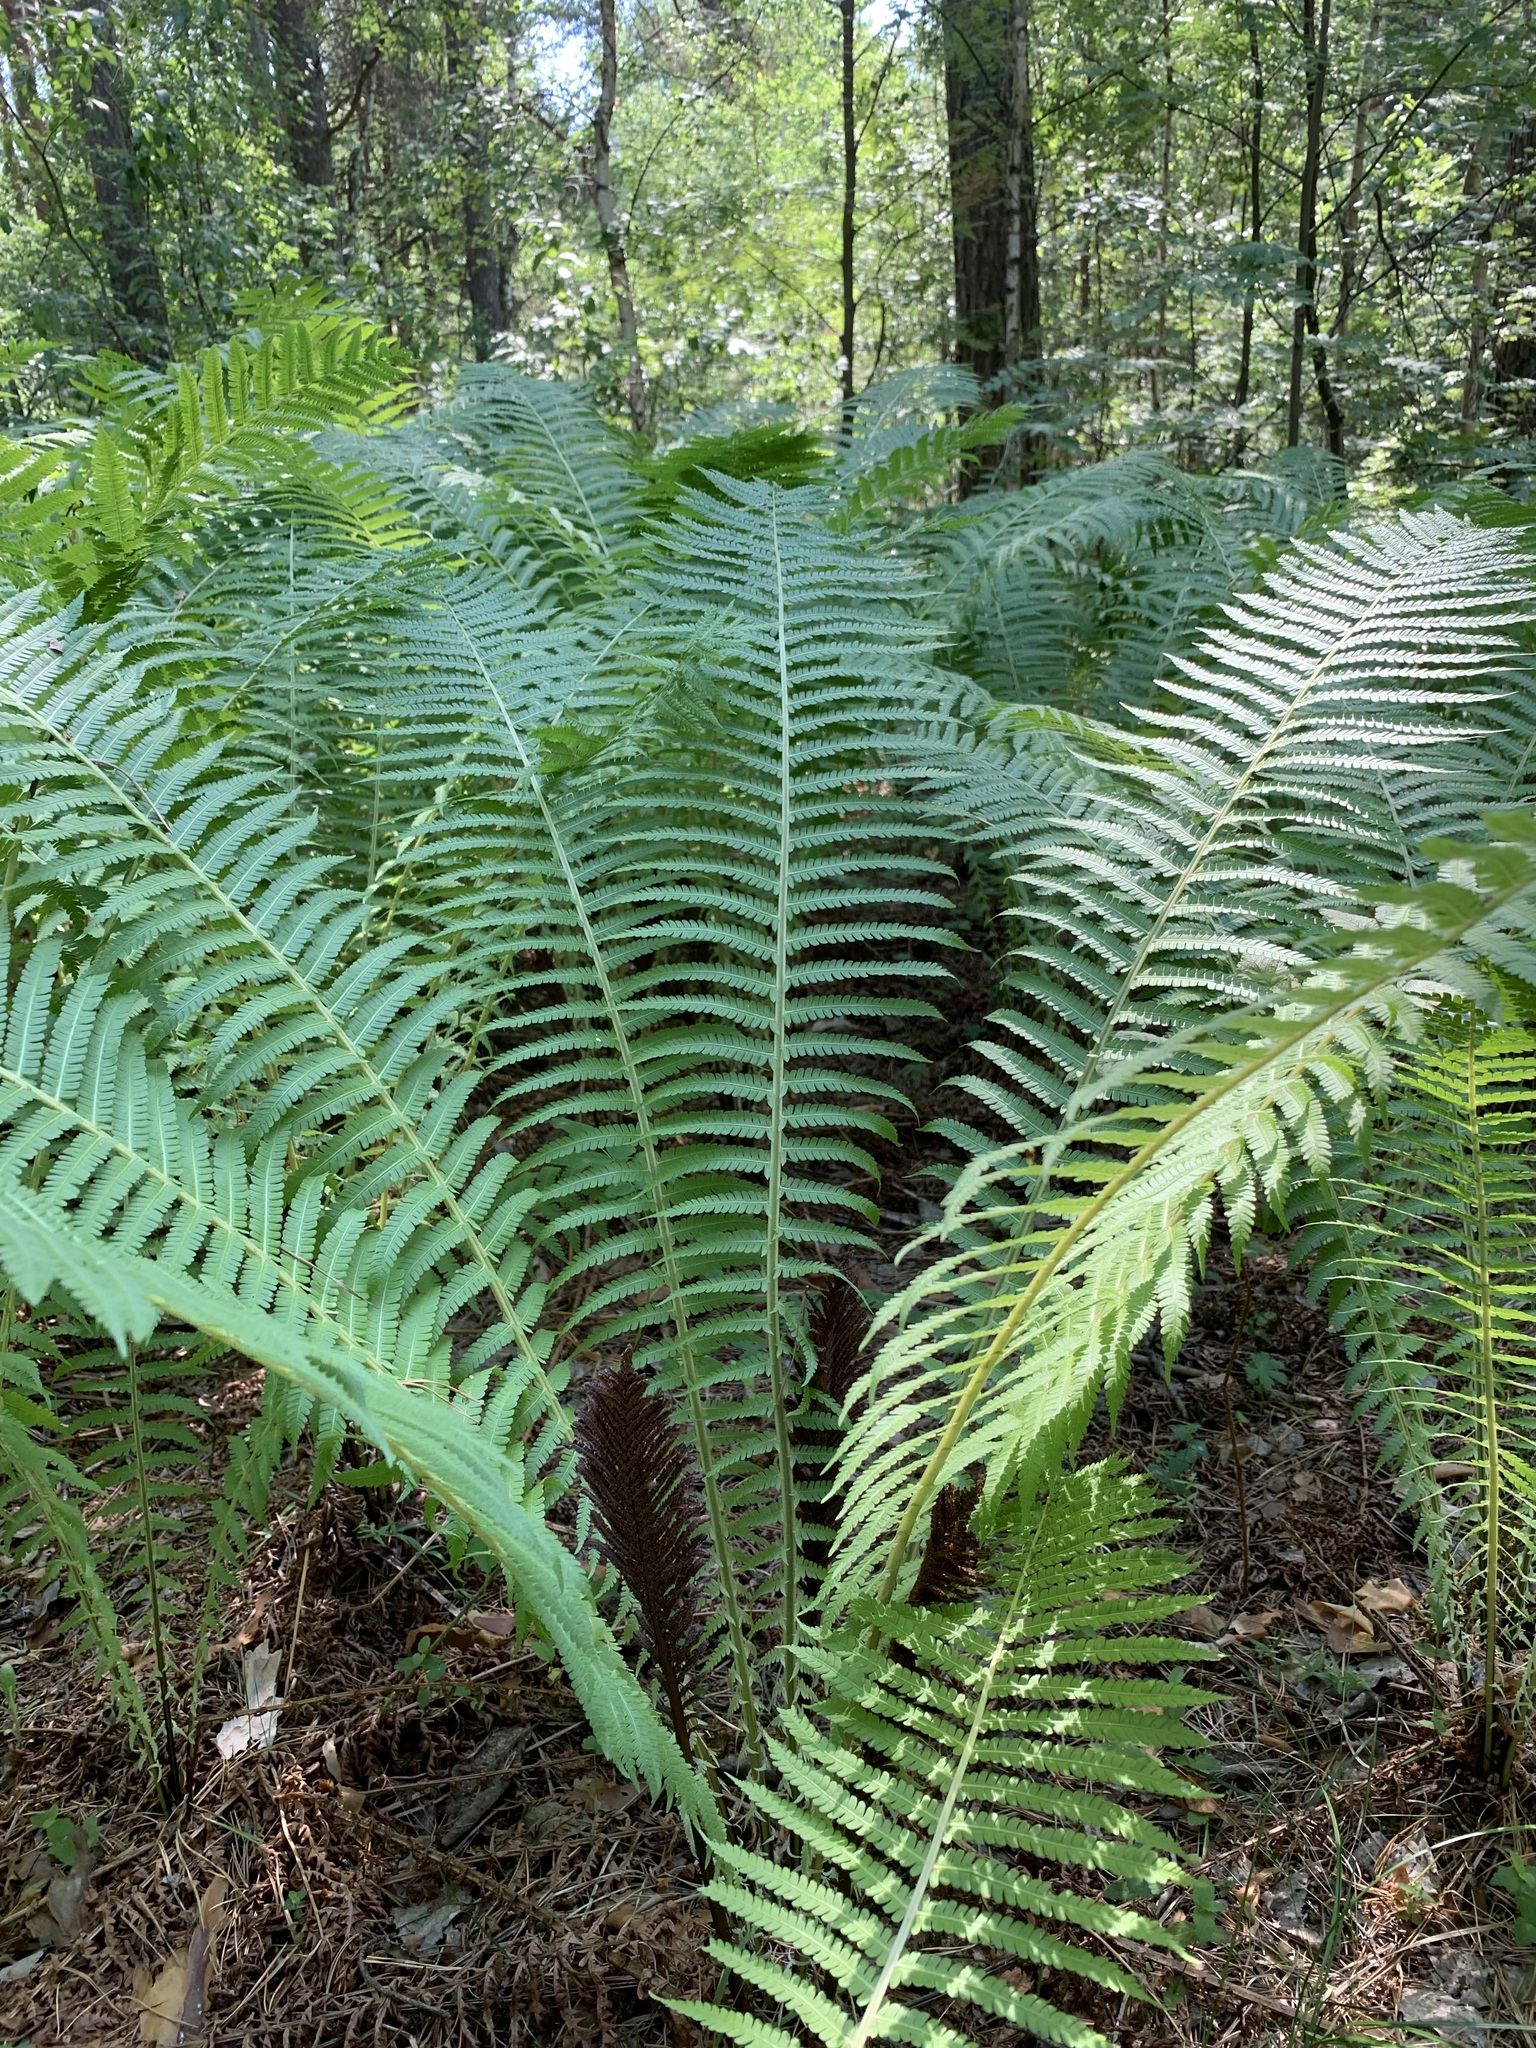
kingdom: Plantae
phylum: Tracheophyta
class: Polypodiopsida
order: Polypodiales
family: Onocleaceae
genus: Matteuccia
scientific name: Matteuccia struthiopteris
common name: Ostrich fern
